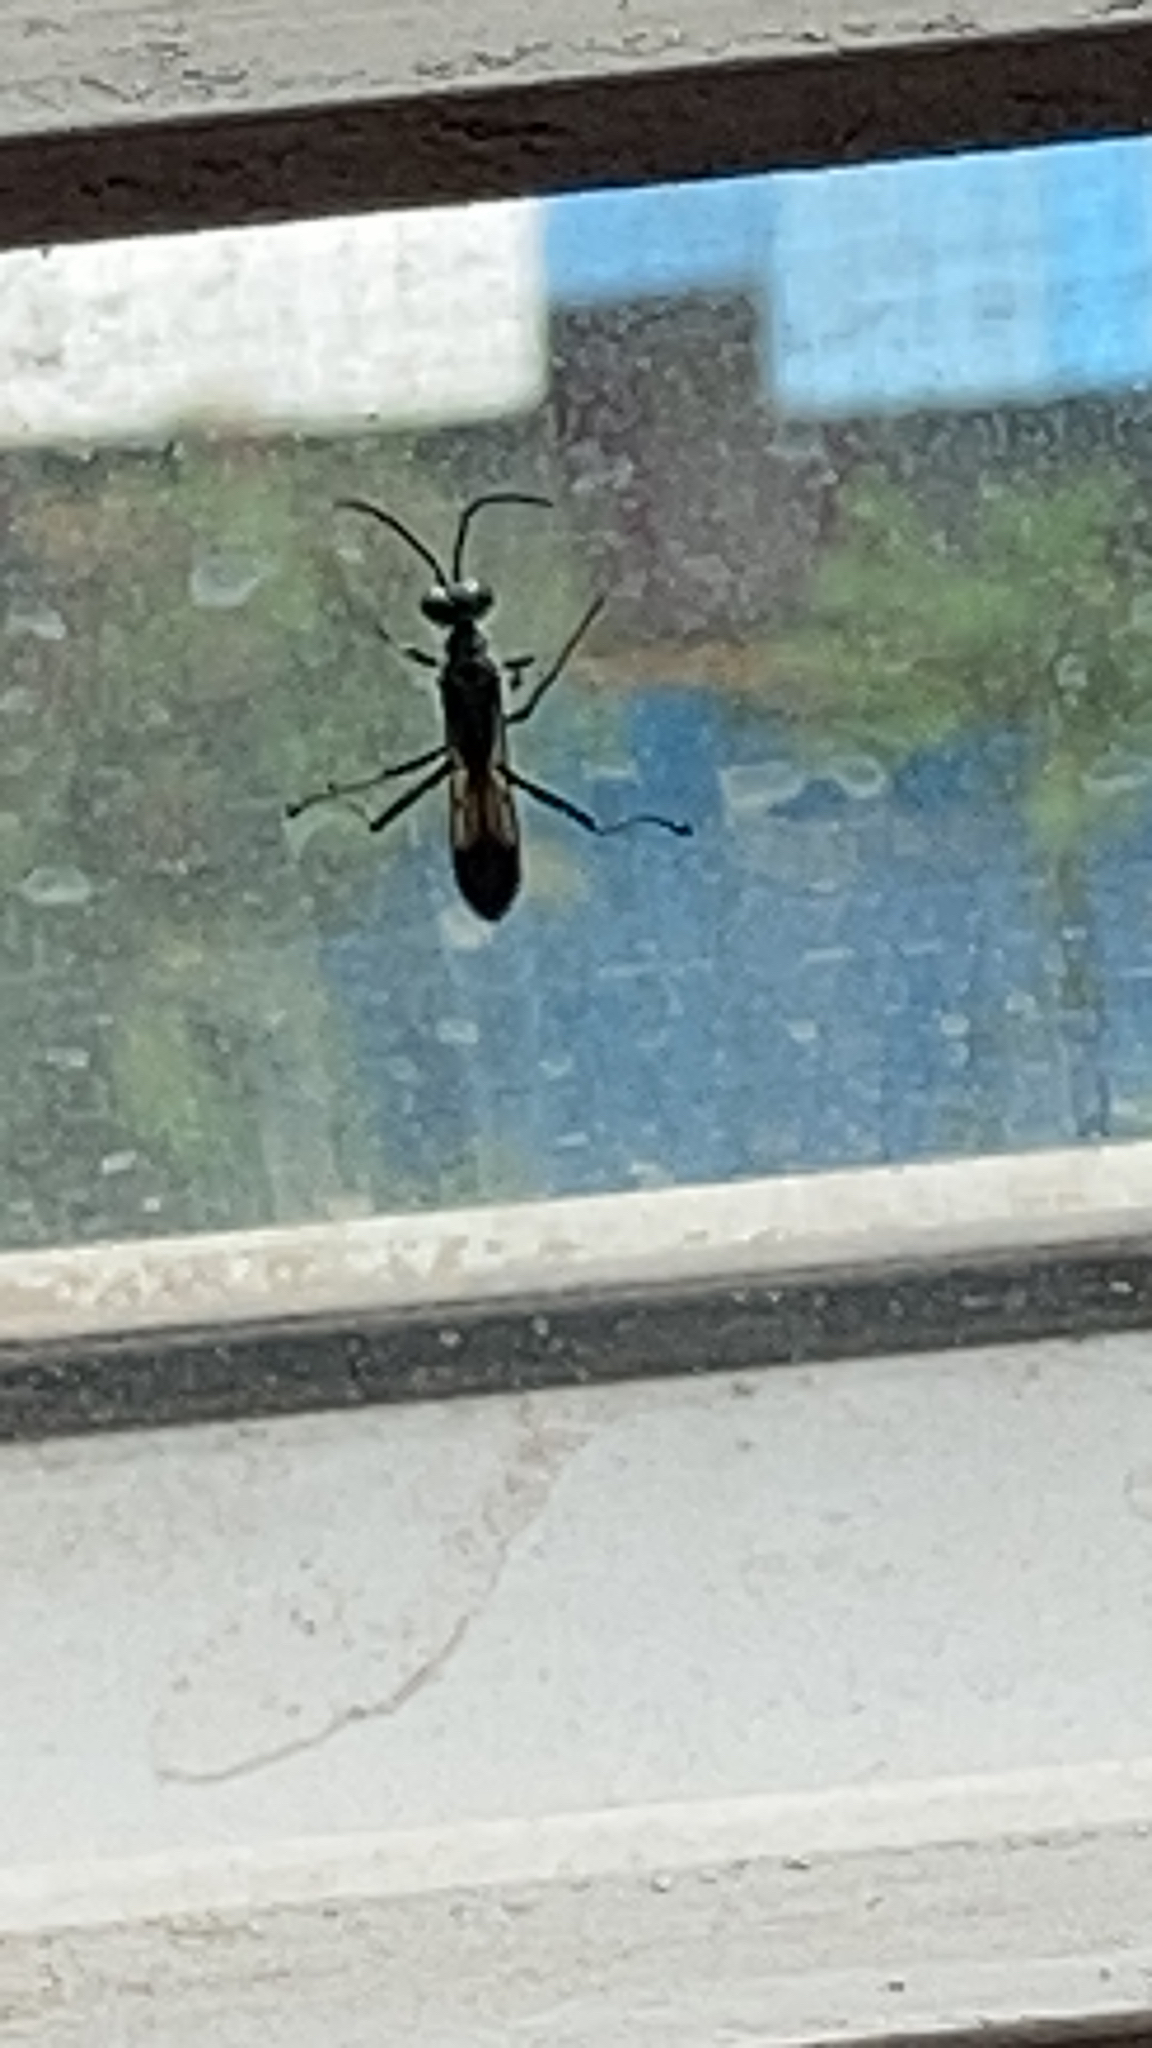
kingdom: Animalia
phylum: Arthropoda
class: Insecta
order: Hymenoptera
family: Sphecidae
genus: Chalybion
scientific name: Chalybion bengalense
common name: Mud dauber
